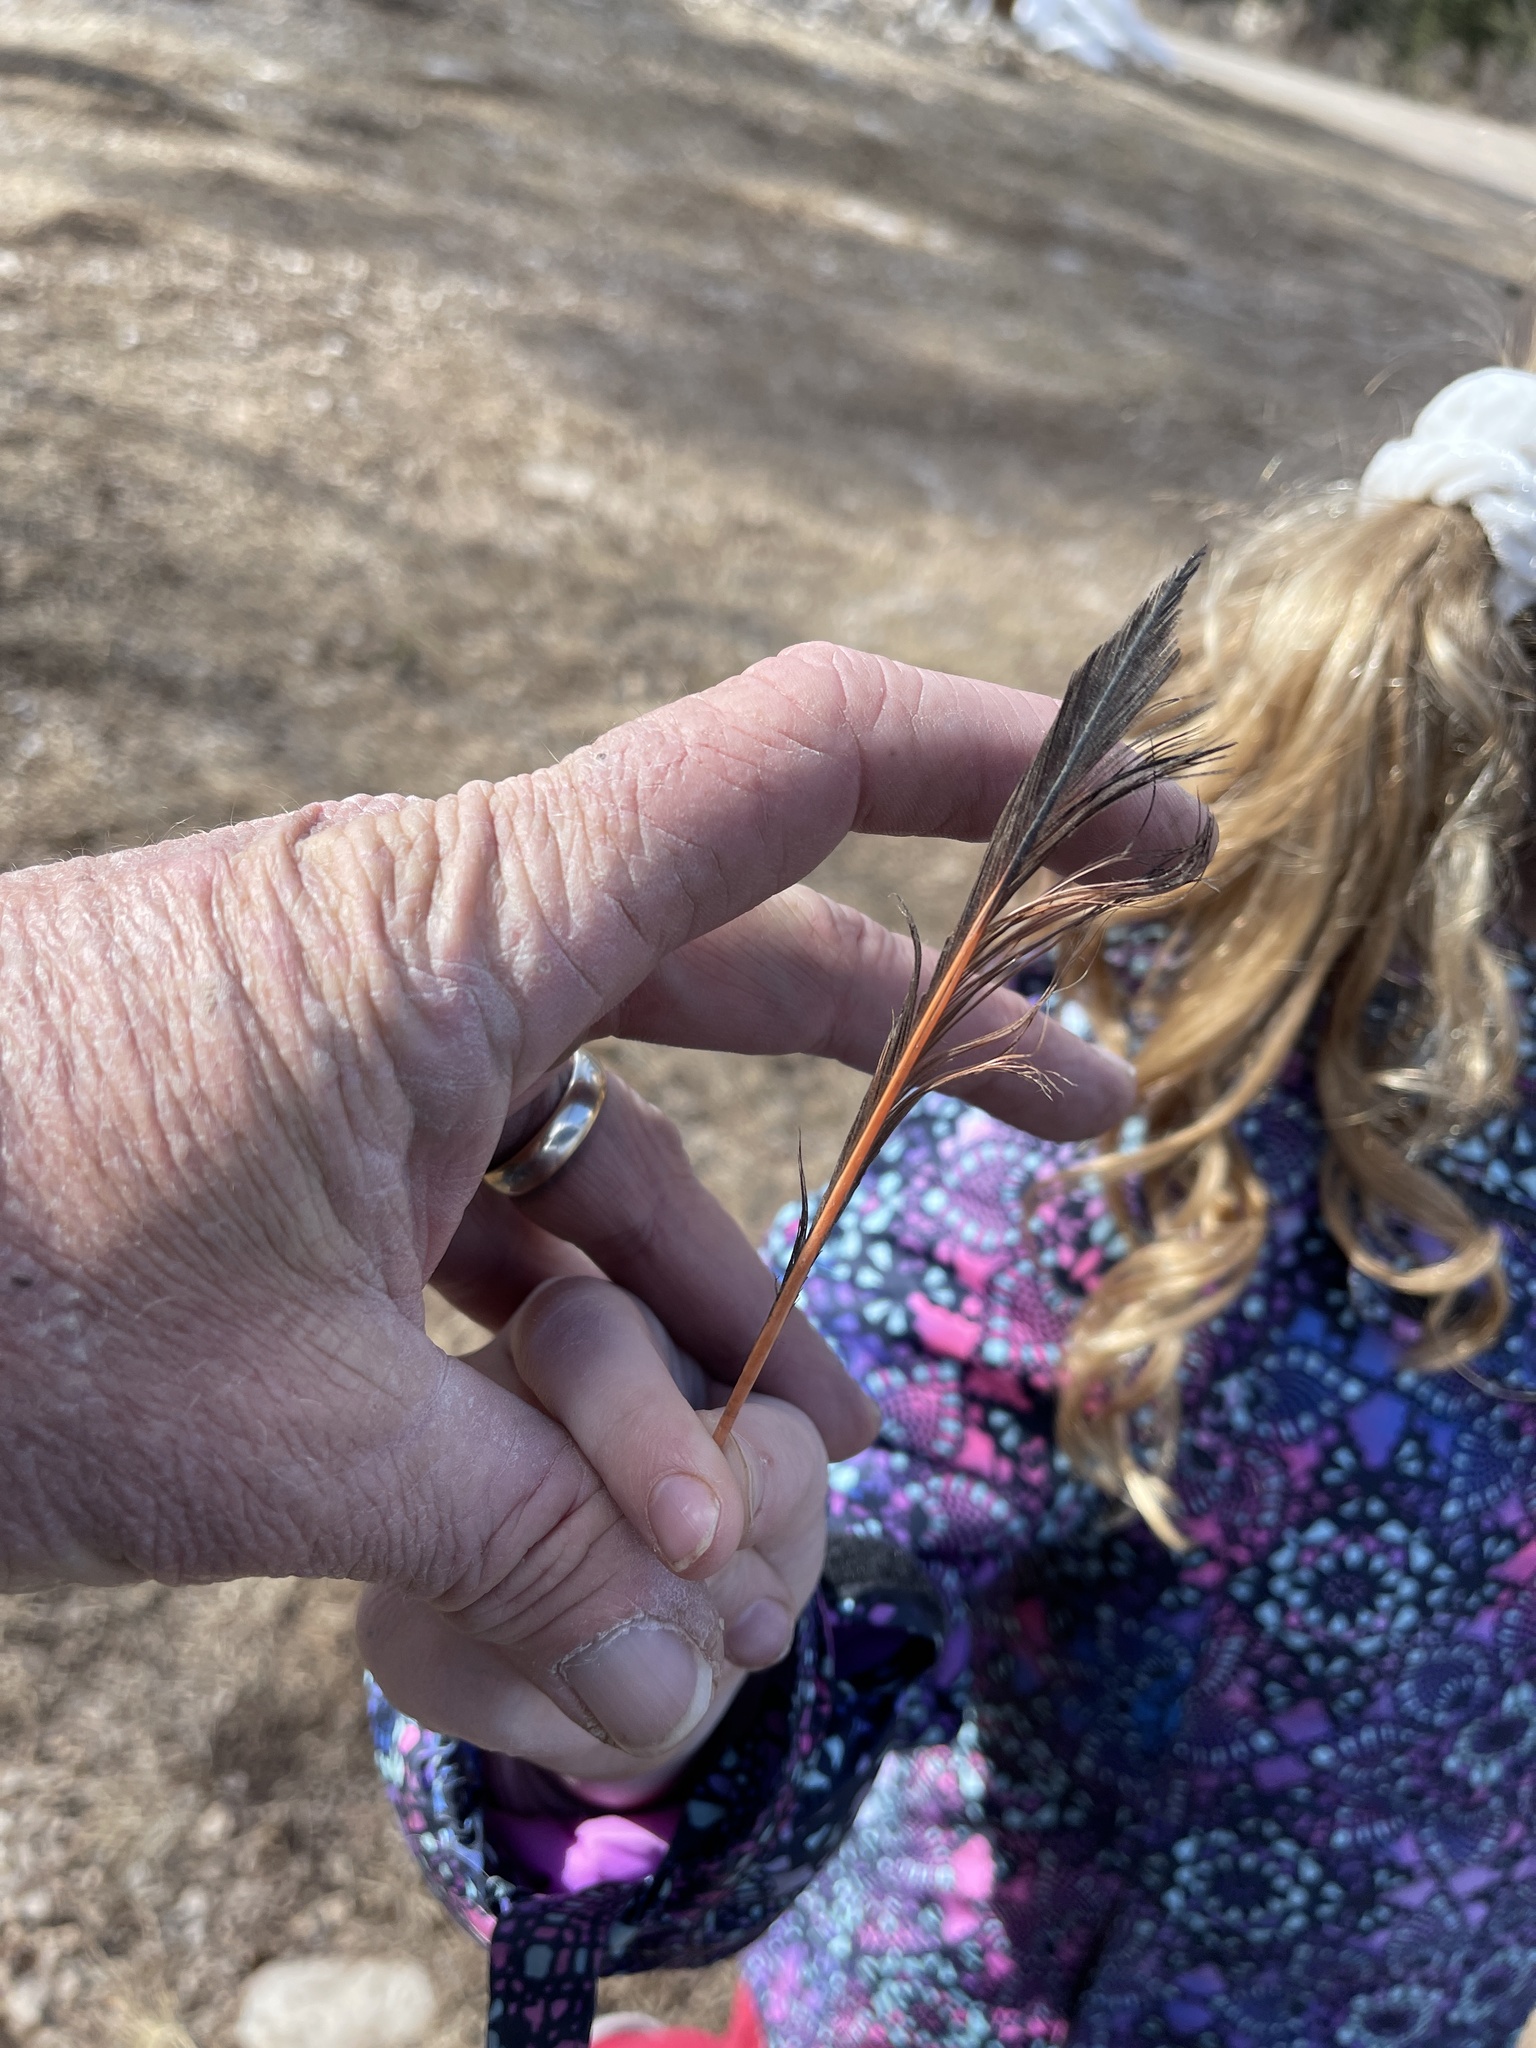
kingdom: Animalia
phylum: Chordata
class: Aves
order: Piciformes
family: Picidae
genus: Colaptes
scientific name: Colaptes auratus
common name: Northern flicker
